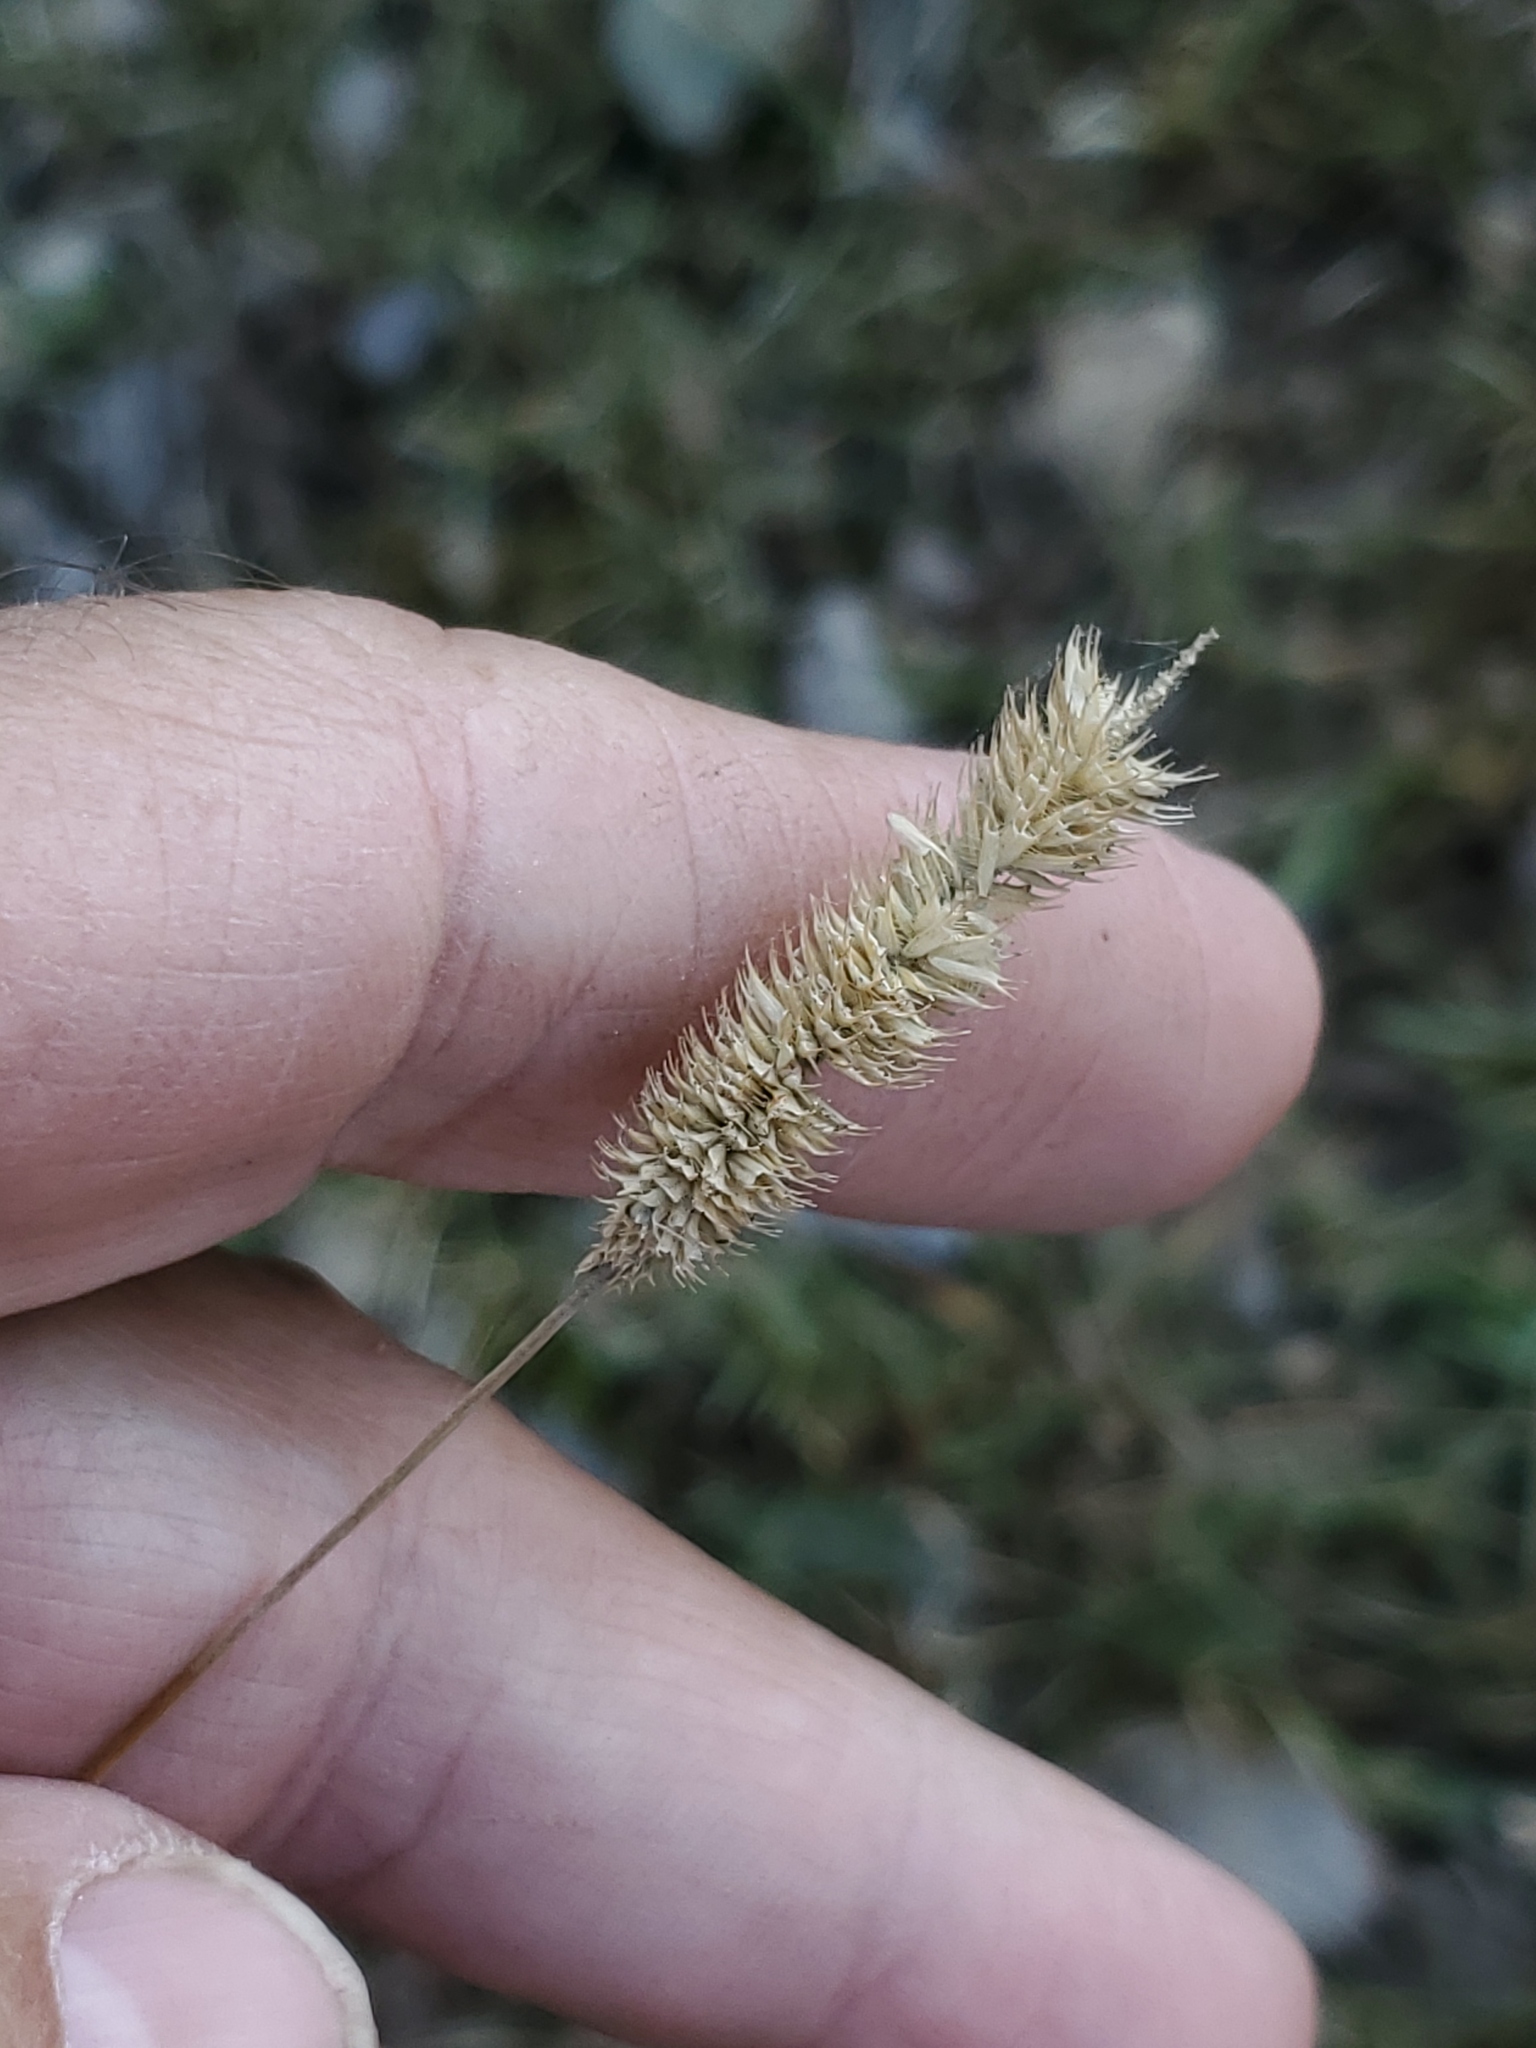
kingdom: Plantae
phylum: Tracheophyta
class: Liliopsida
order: Poales
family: Poaceae
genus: Phleum
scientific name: Phleum pratense
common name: Timothy grass
